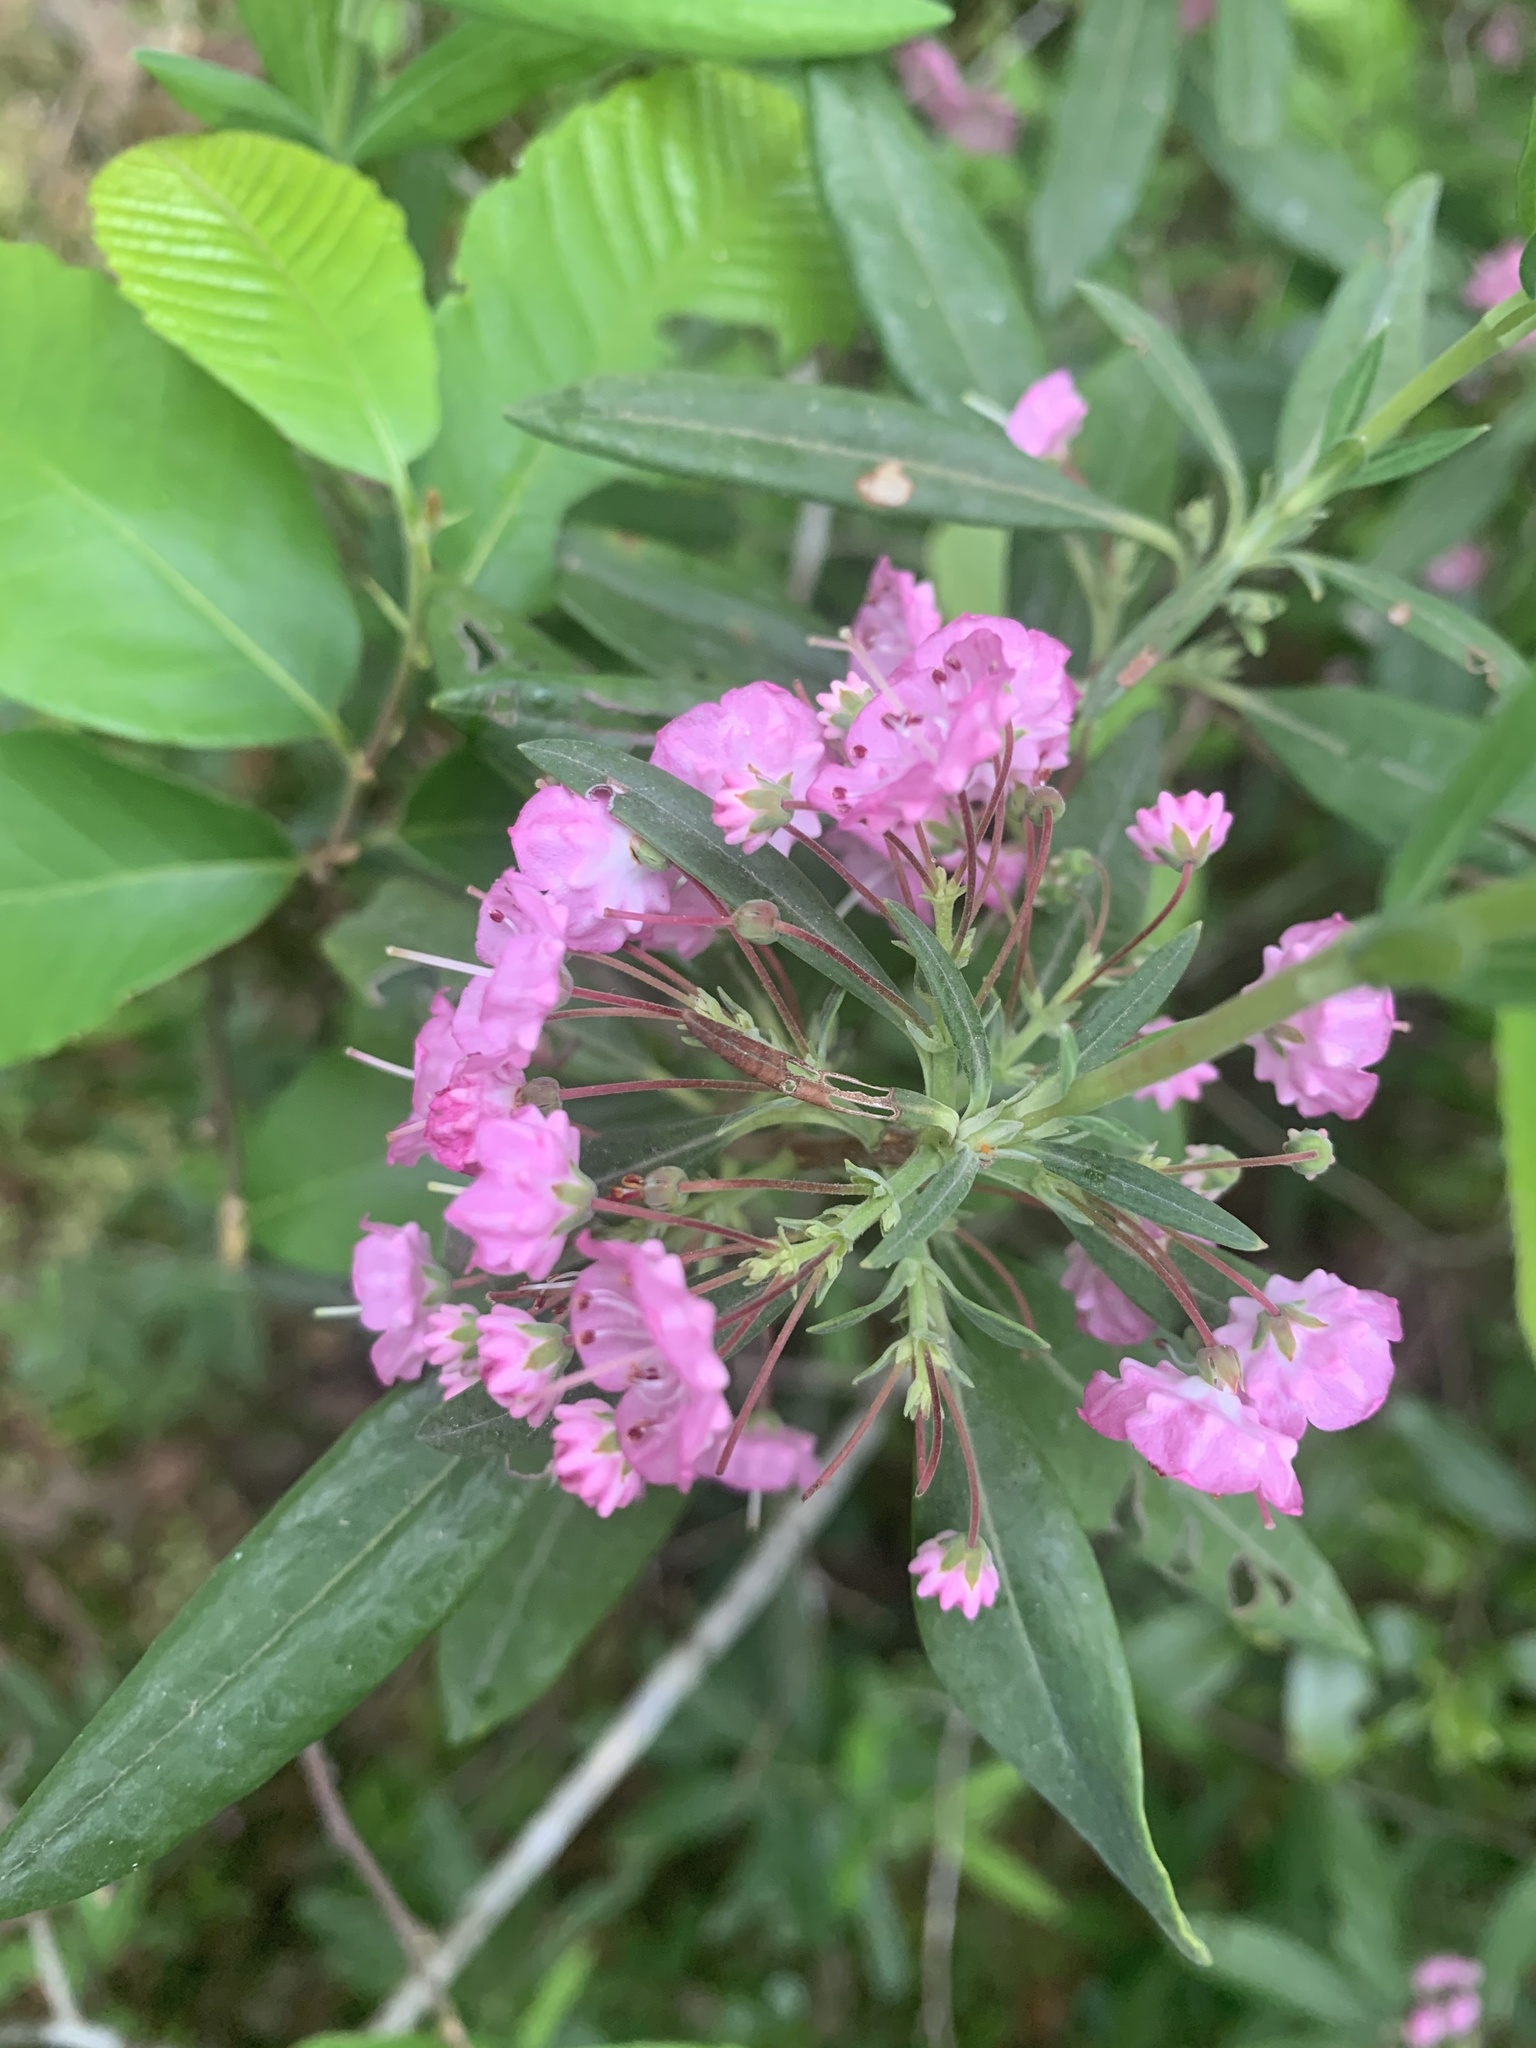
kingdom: Plantae
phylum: Tracheophyta
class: Magnoliopsida
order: Ericales
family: Ericaceae
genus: Kalmia
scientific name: Kalmia angustifolia
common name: Sheep-laurel
